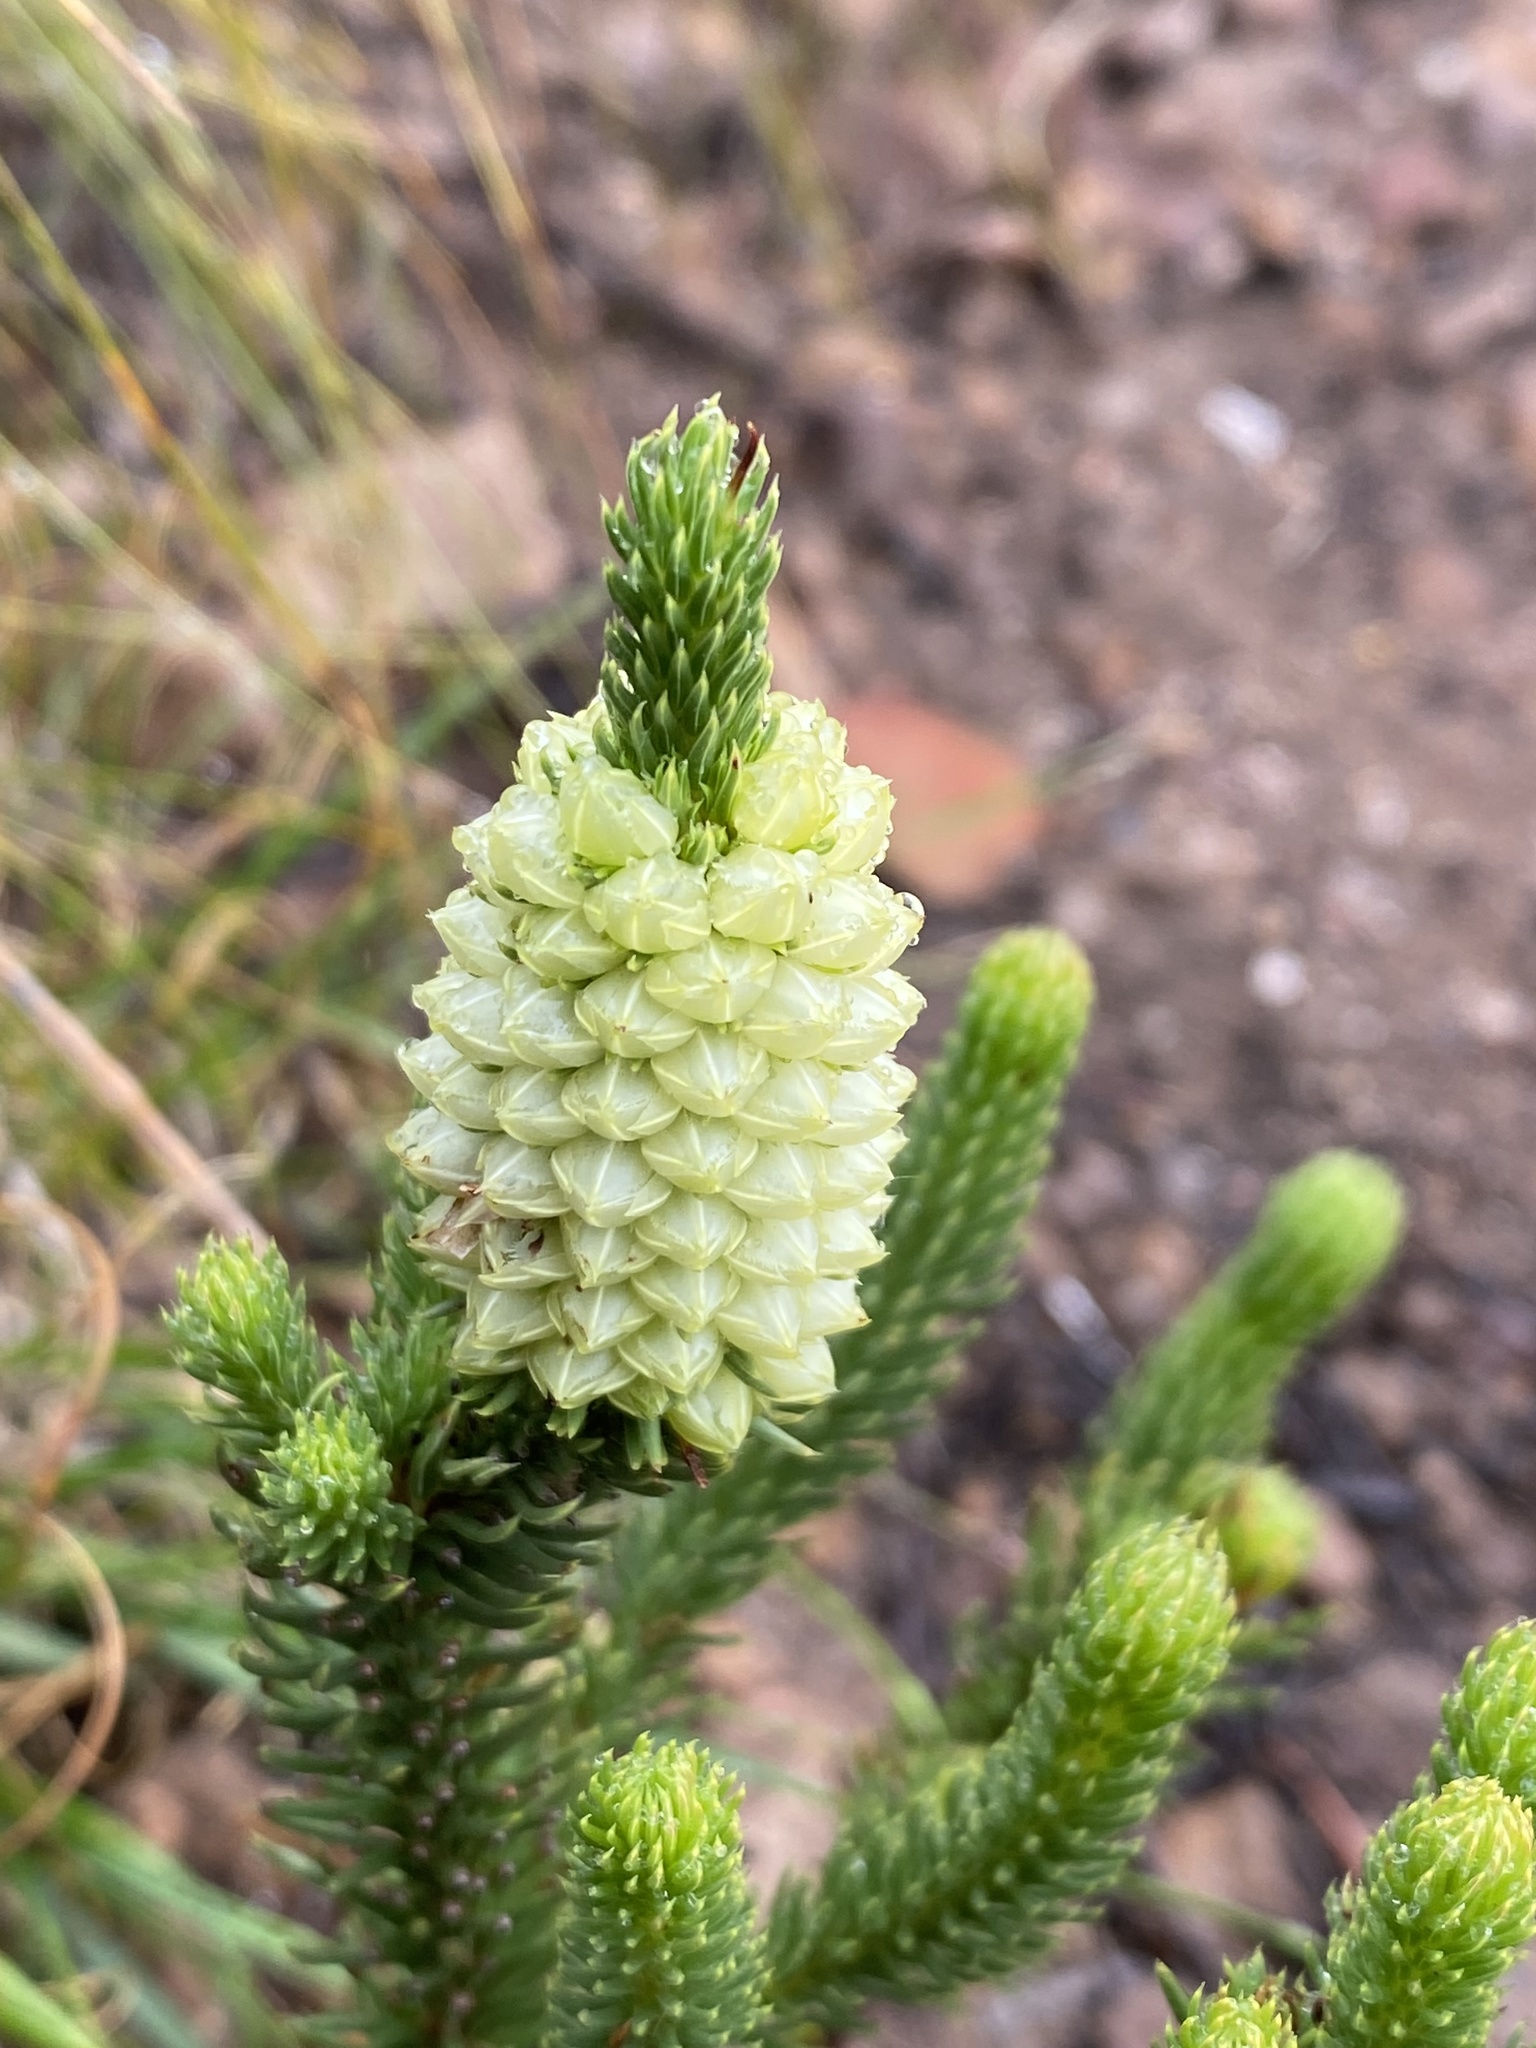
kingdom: Plantae
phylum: Tracheophyta
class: Magnoliopsida
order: Ericales
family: Ericaceae
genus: Erica
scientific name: Erica sessiliflora
